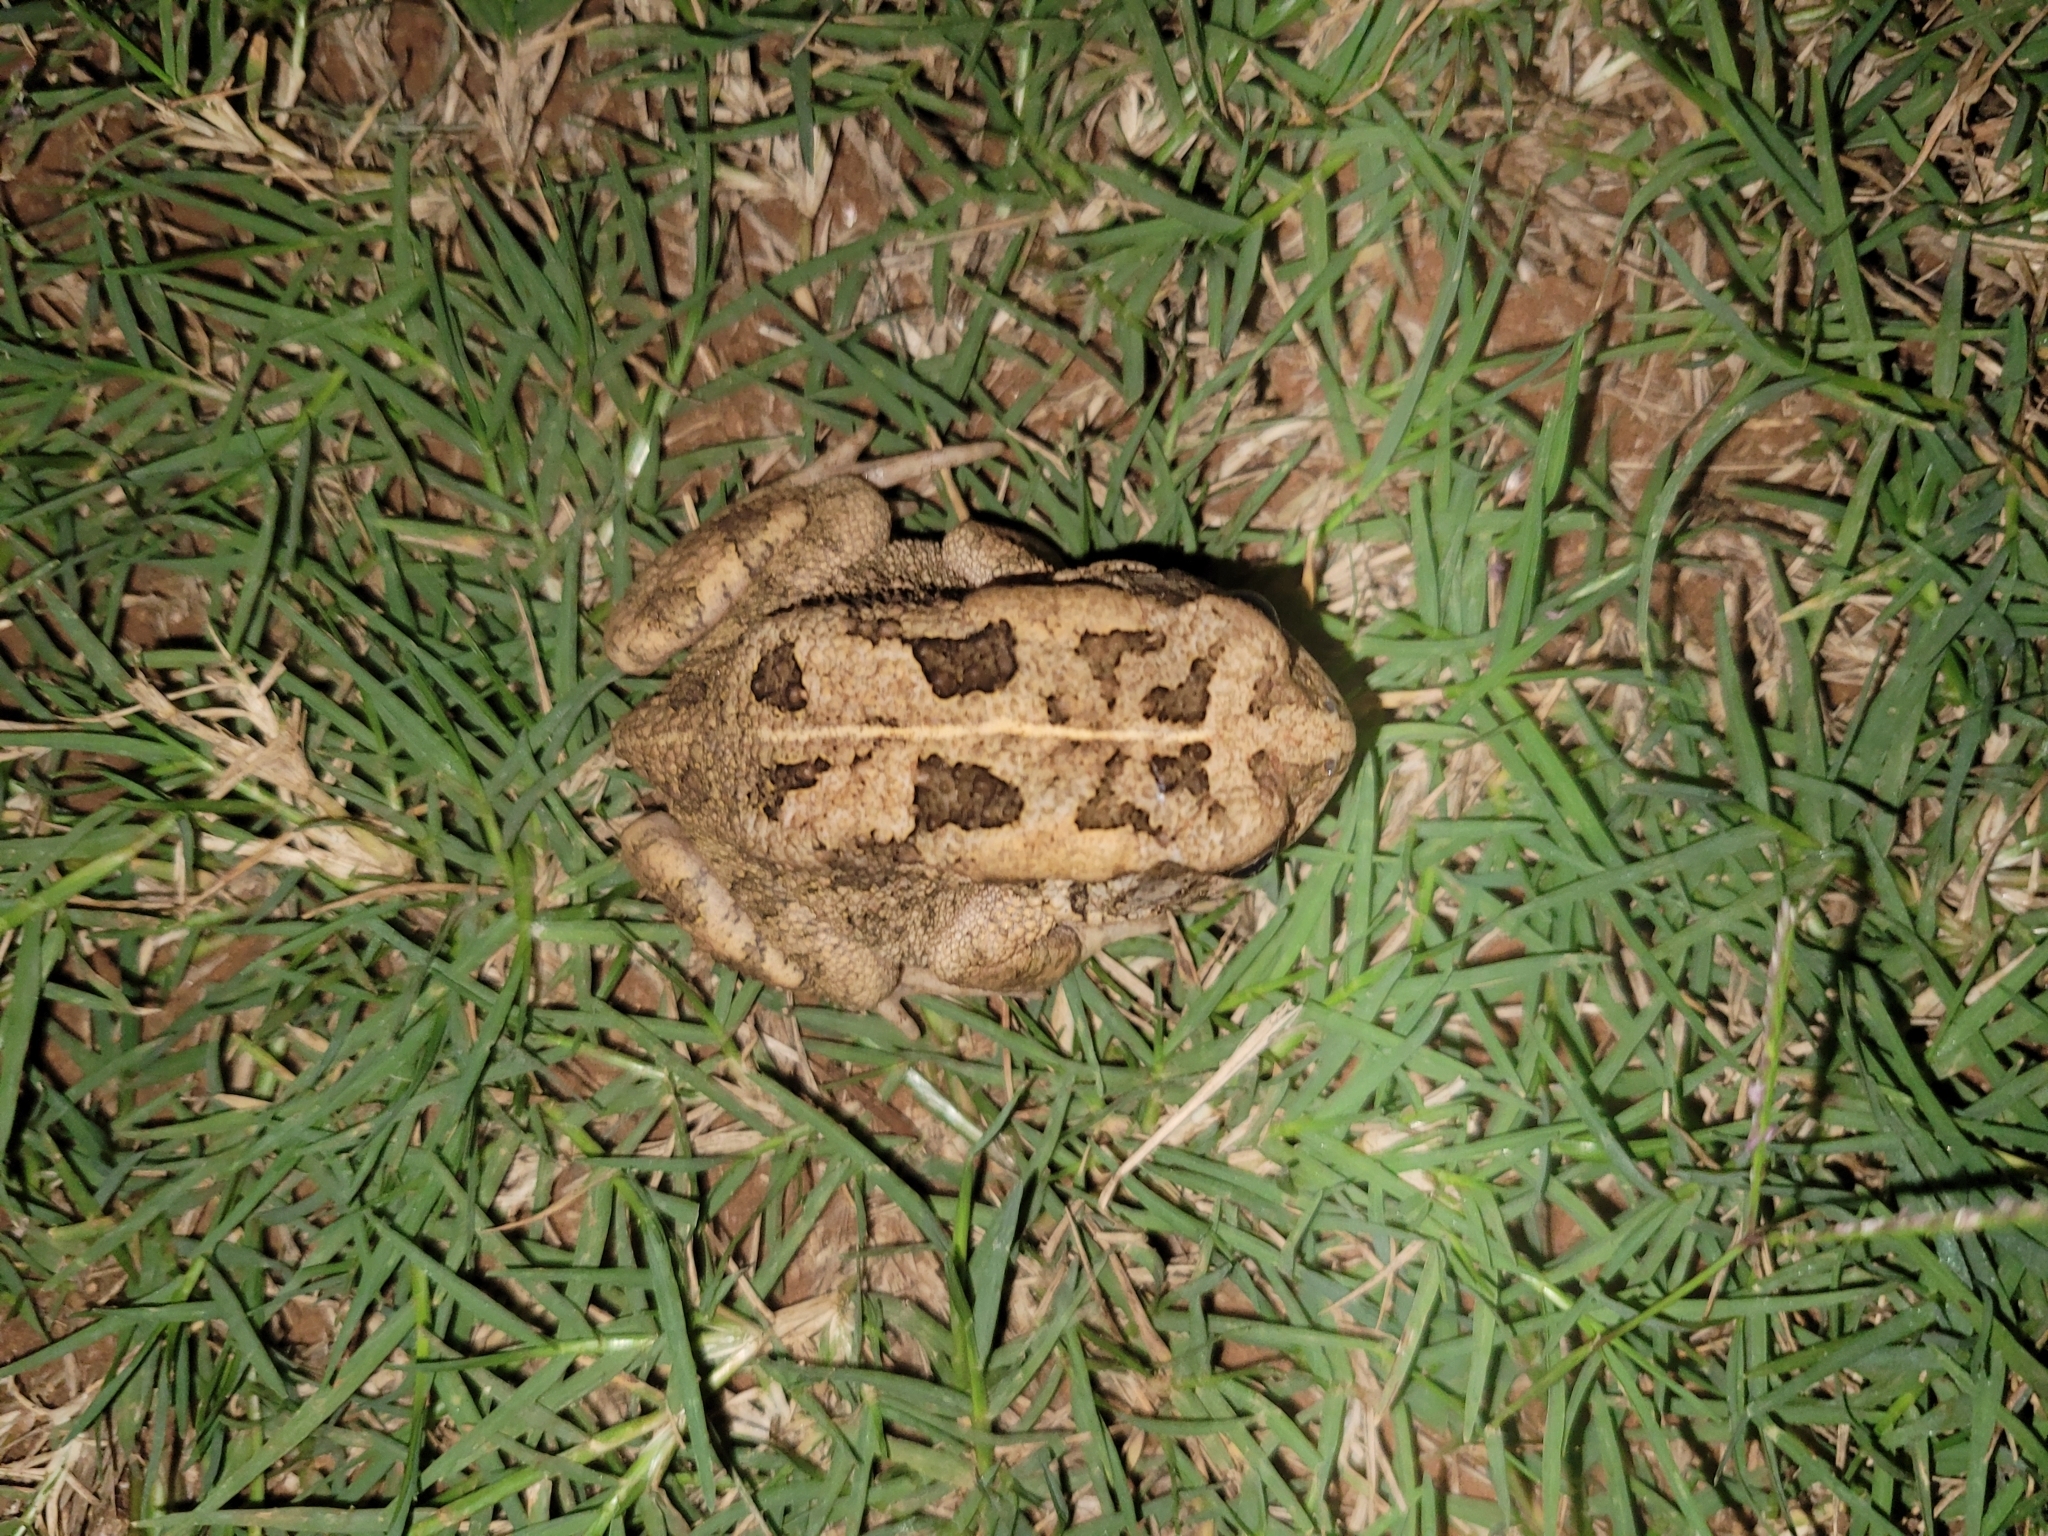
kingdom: Animalia
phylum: Chordata
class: Amphibia
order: Anura
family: Bufonidae
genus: Sclerophrys
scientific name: Sclerophrys gutturalis
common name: African common toad
